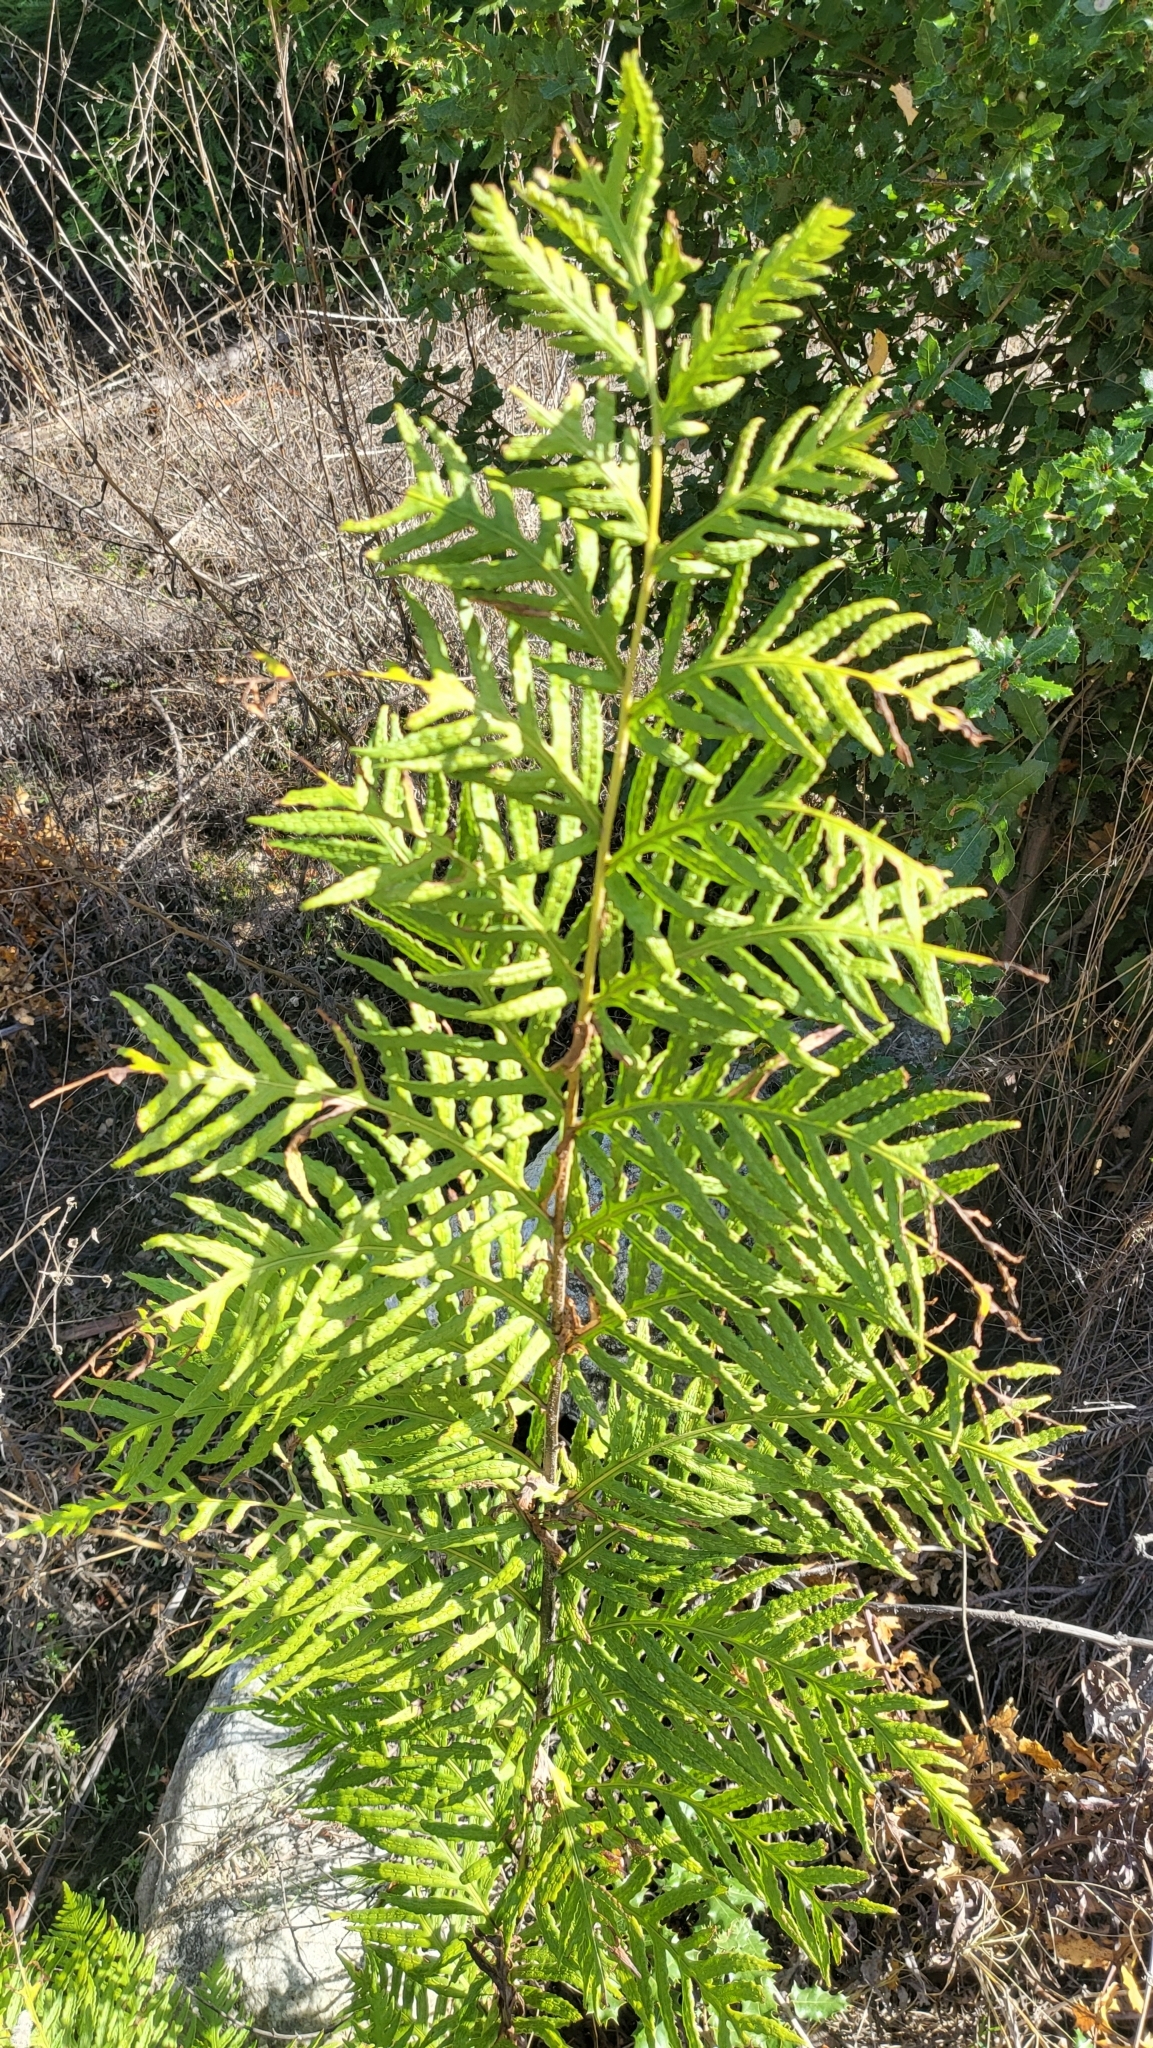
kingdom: Plantae
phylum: Tracheophyta
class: Polypodiopsida
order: Polypodiales
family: Blechnaceae
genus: Woodwardia
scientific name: Woodwardia fimbriata
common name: Giant chain fern
